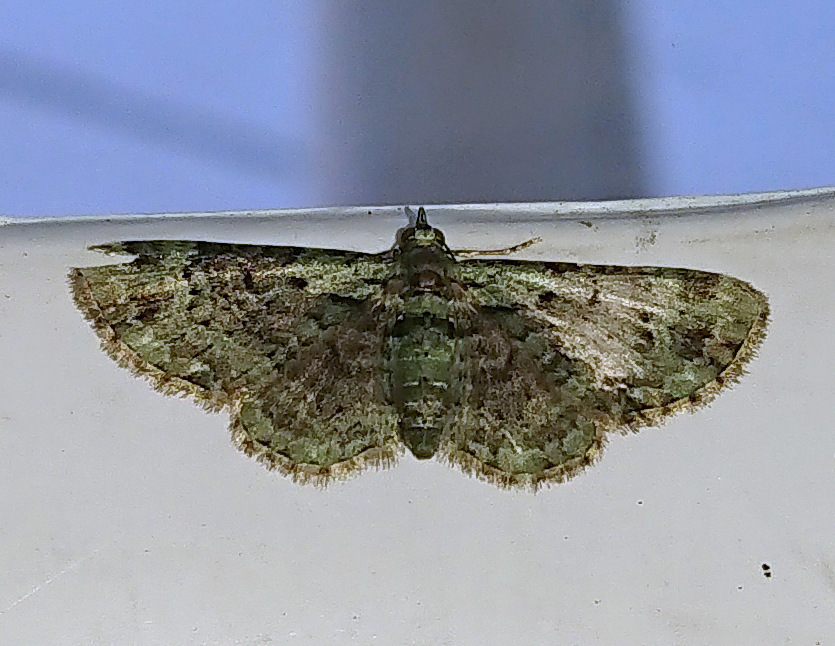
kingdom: Animalia
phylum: Arthropoda
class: Insecta
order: Lepidoptera
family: Geometridae
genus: Pasiphila
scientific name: Pasiphila rectangulata
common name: Green pug
